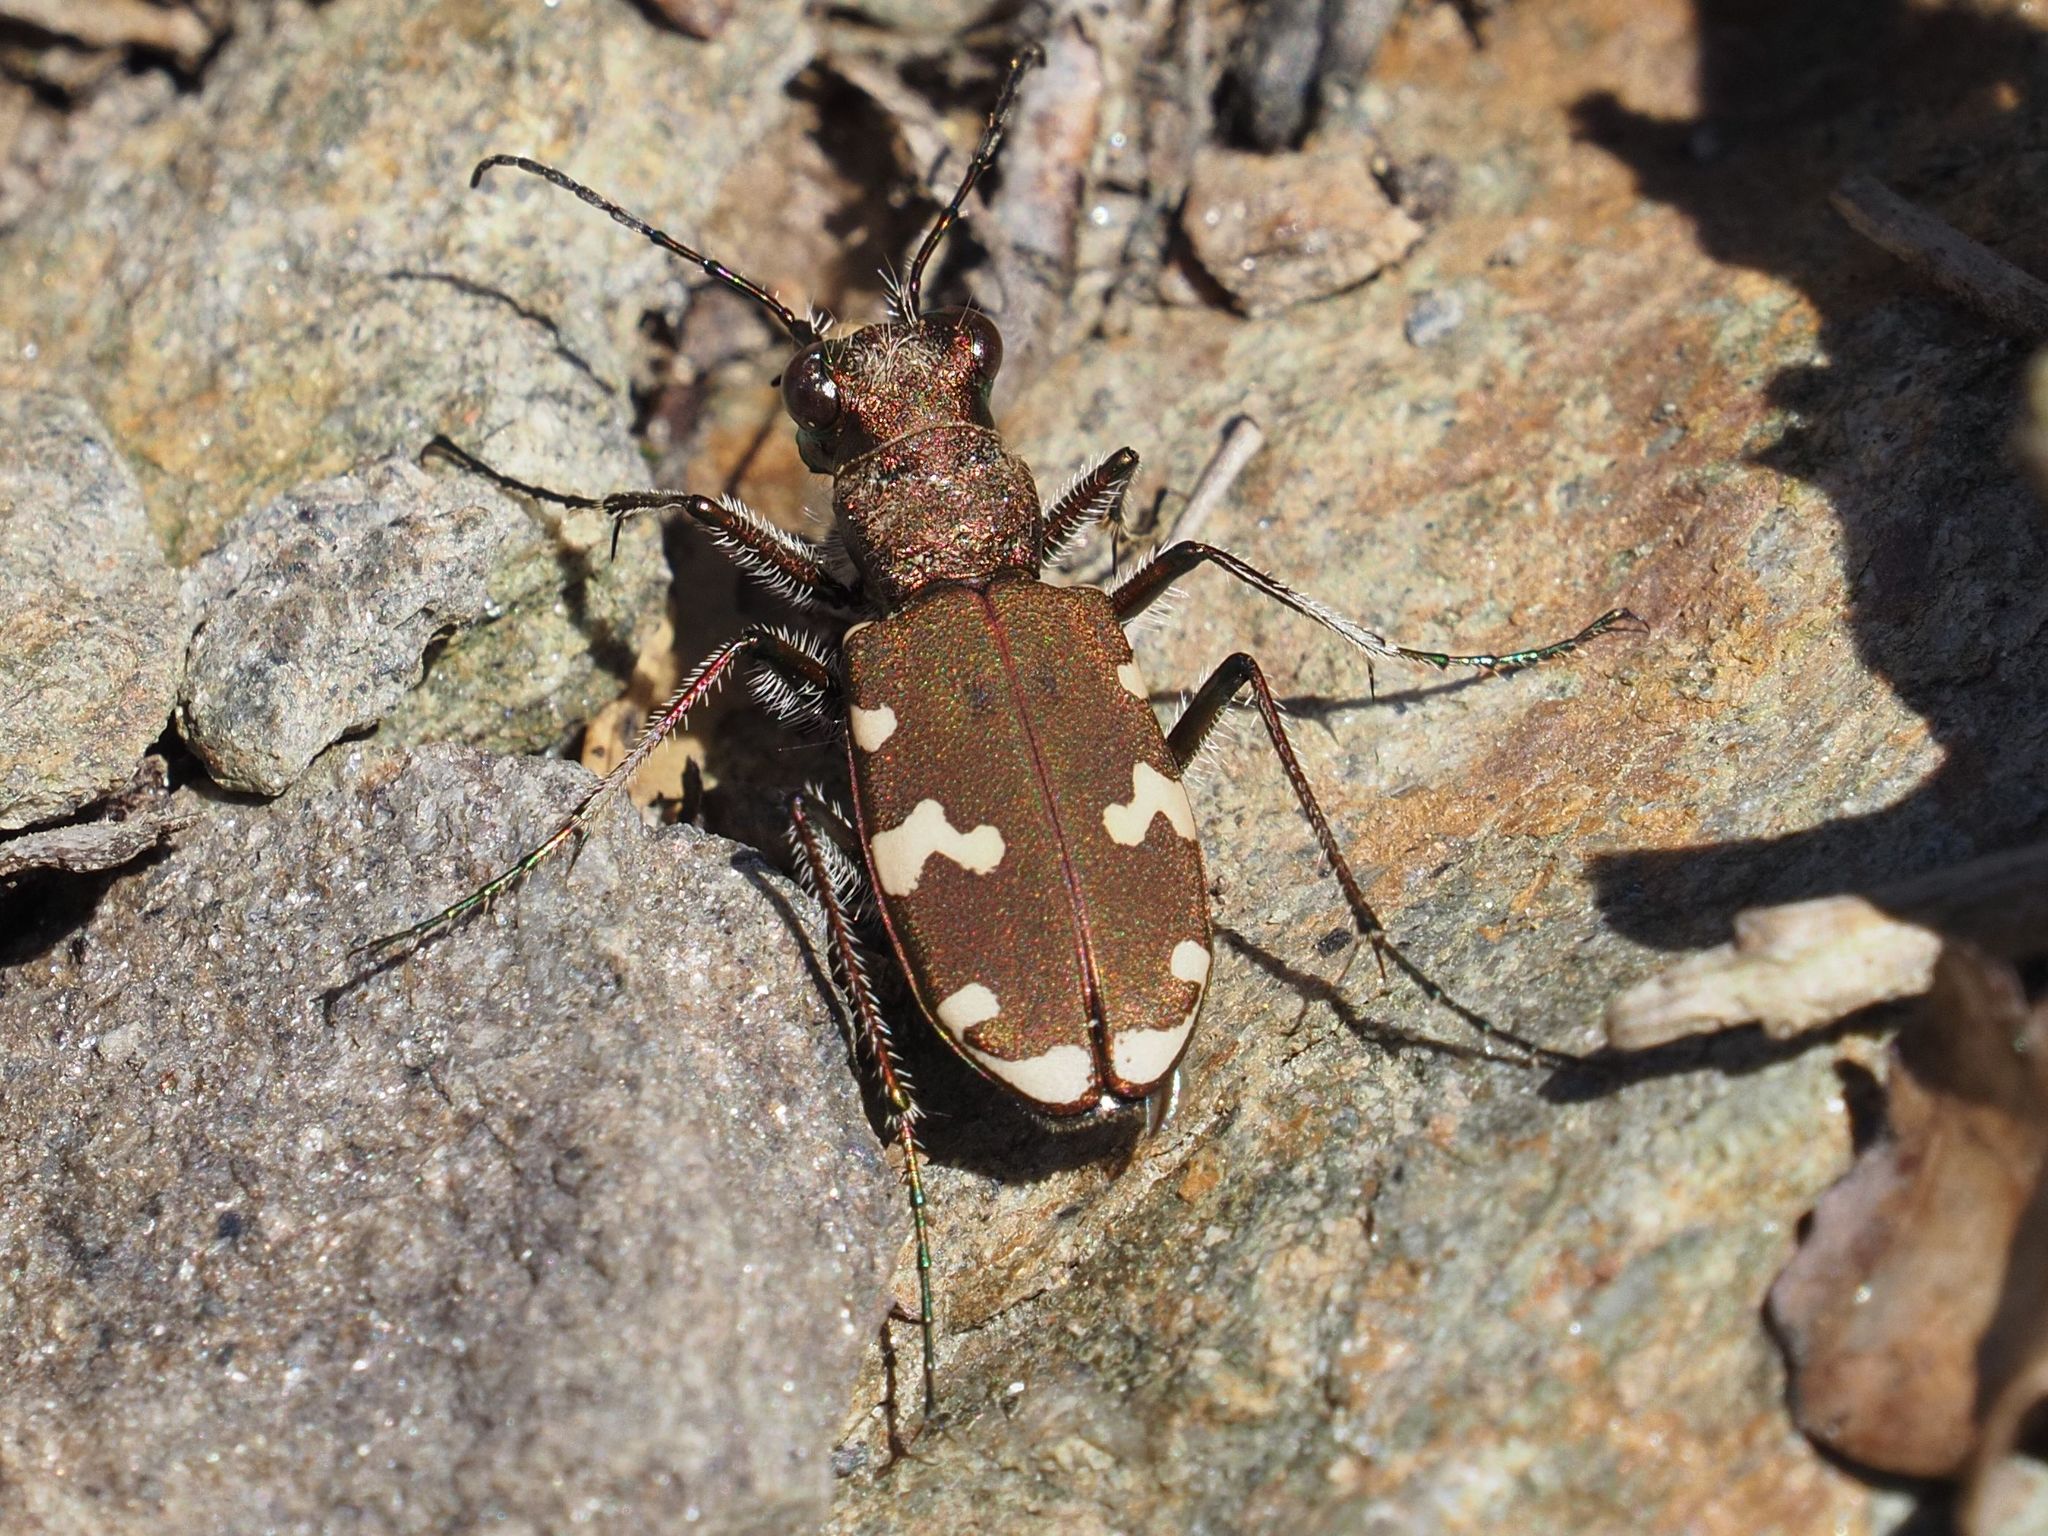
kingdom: Animalia
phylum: Arthropoda
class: Insecta
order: Coleoptera
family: Carabidae
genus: Cicindela
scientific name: Cicindela sylvicola
